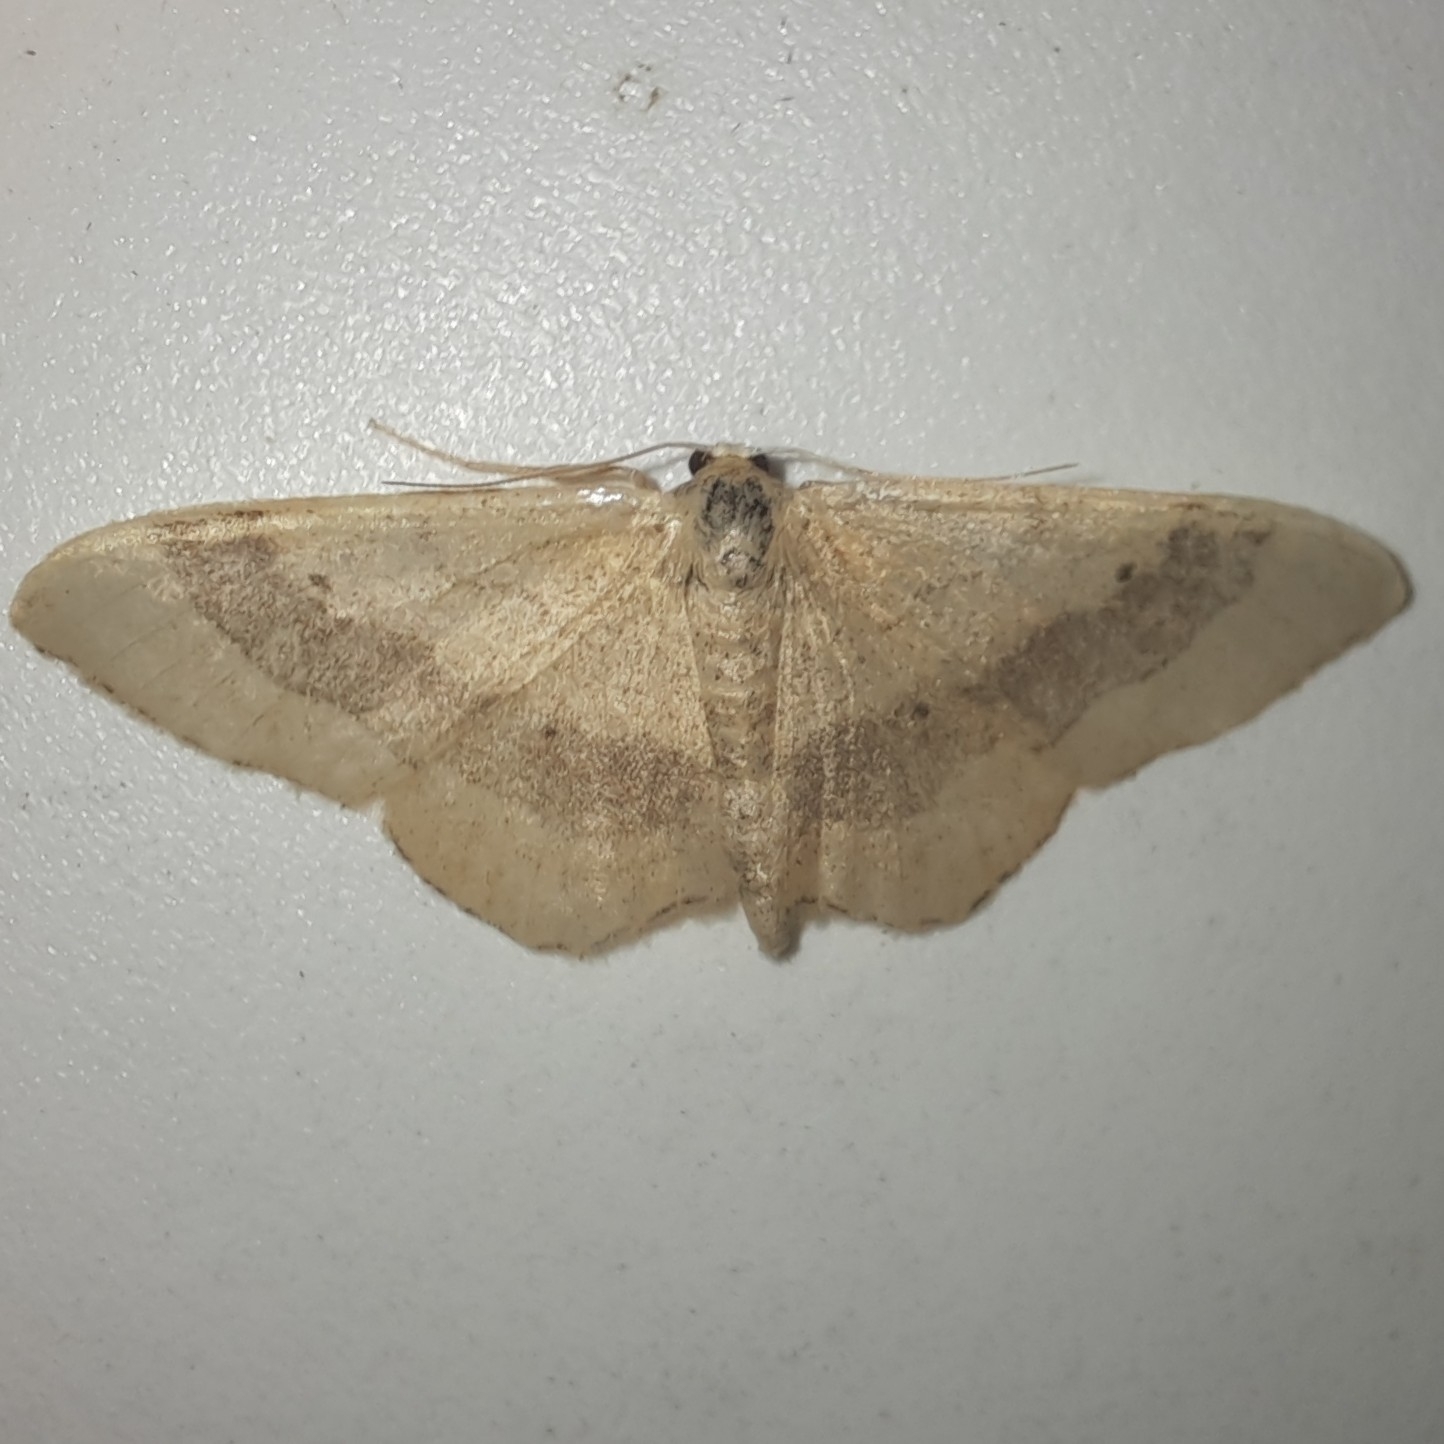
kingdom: Animalia
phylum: Arthropoda
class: Insecta
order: Lepidoptera
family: Geometridae
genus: Idaea
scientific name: Idaea aversata
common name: Riband wave
